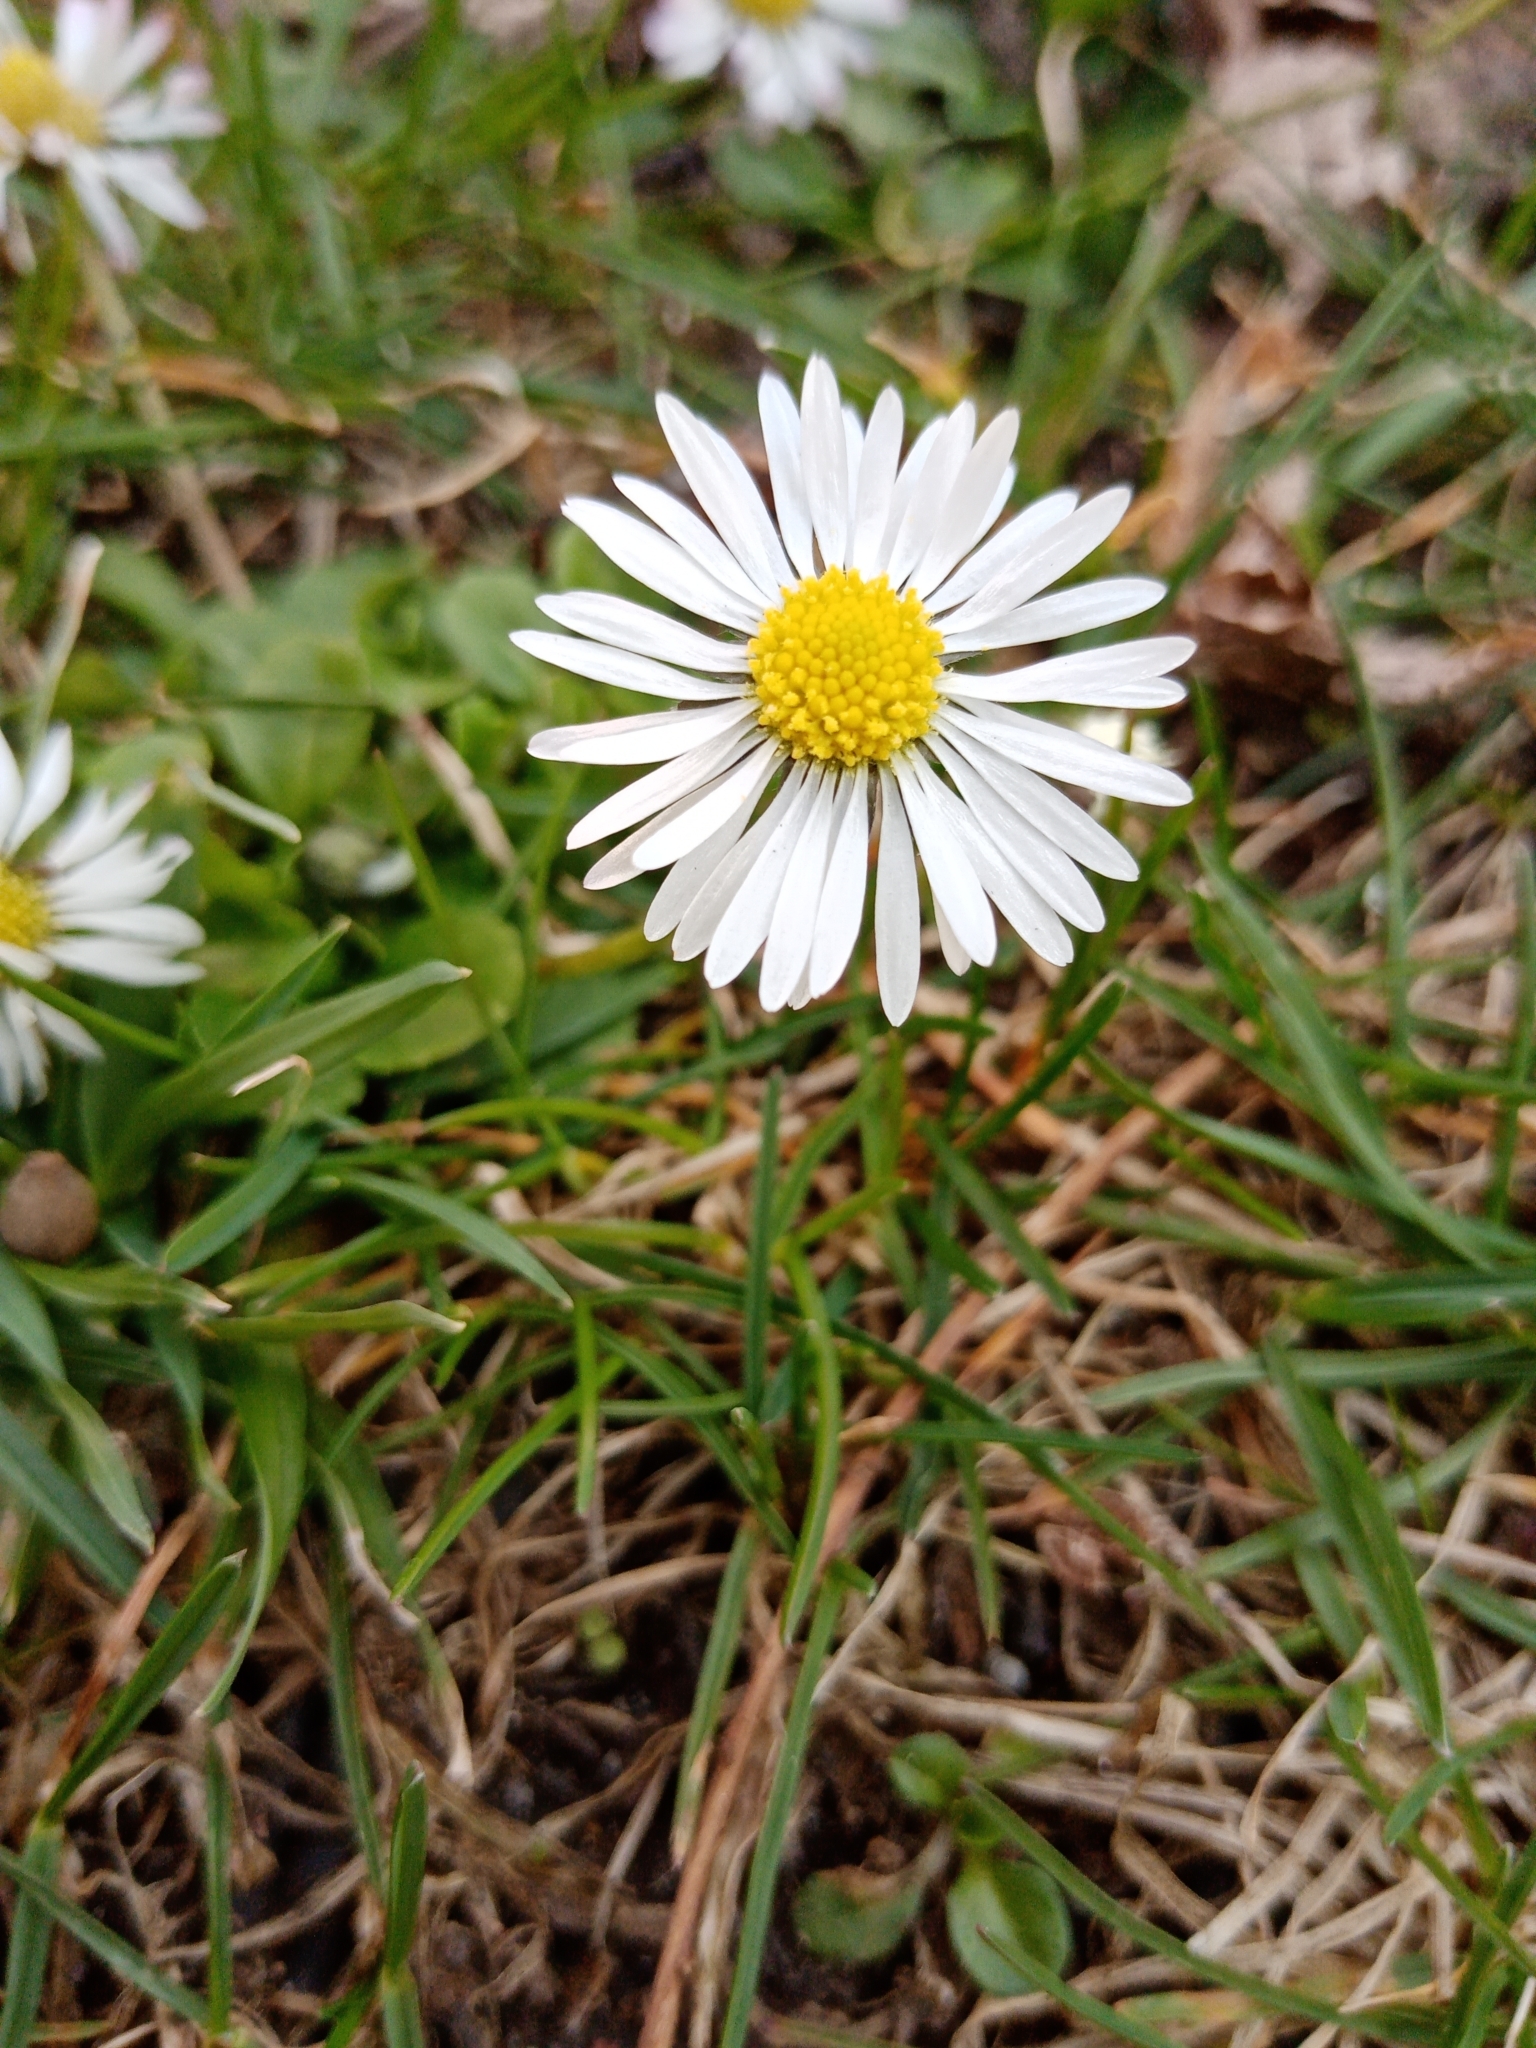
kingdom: Plantae
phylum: Tracheophyta
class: Magnoliopsida
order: Asterales
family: Asteraceae
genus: Bellis
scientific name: Bellis perennis
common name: Lawndaisy
